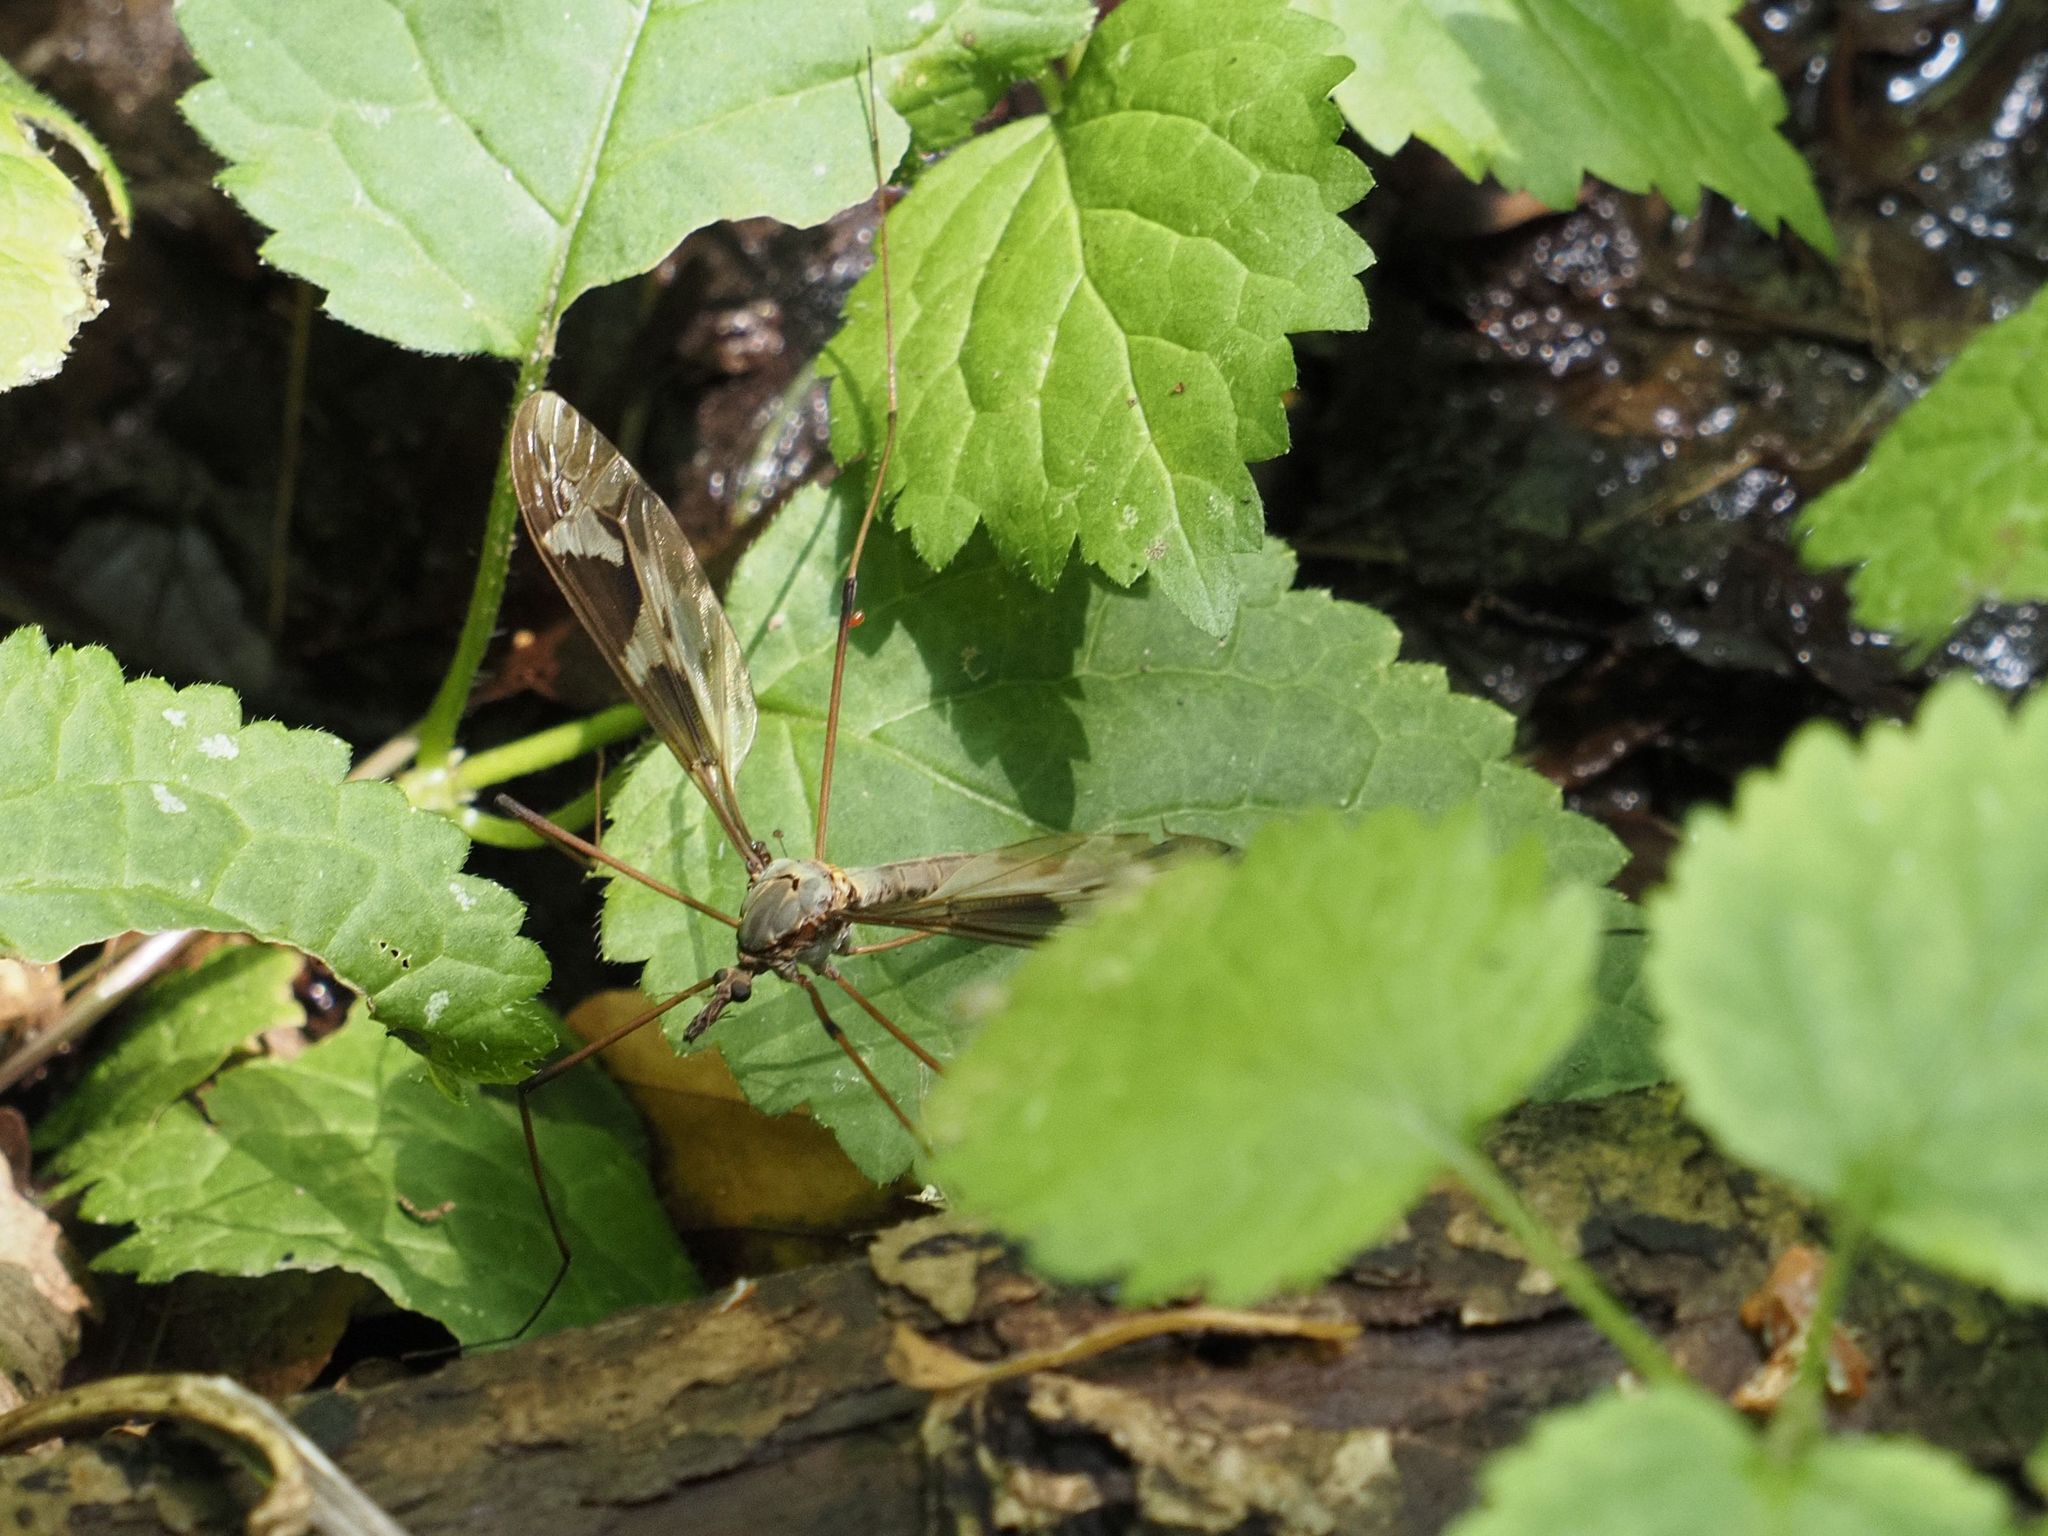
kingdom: Animalia
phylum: Arthropoda
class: Insecta
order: Diptera
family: Tipulidae
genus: Tipula
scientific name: Tipula maxima
